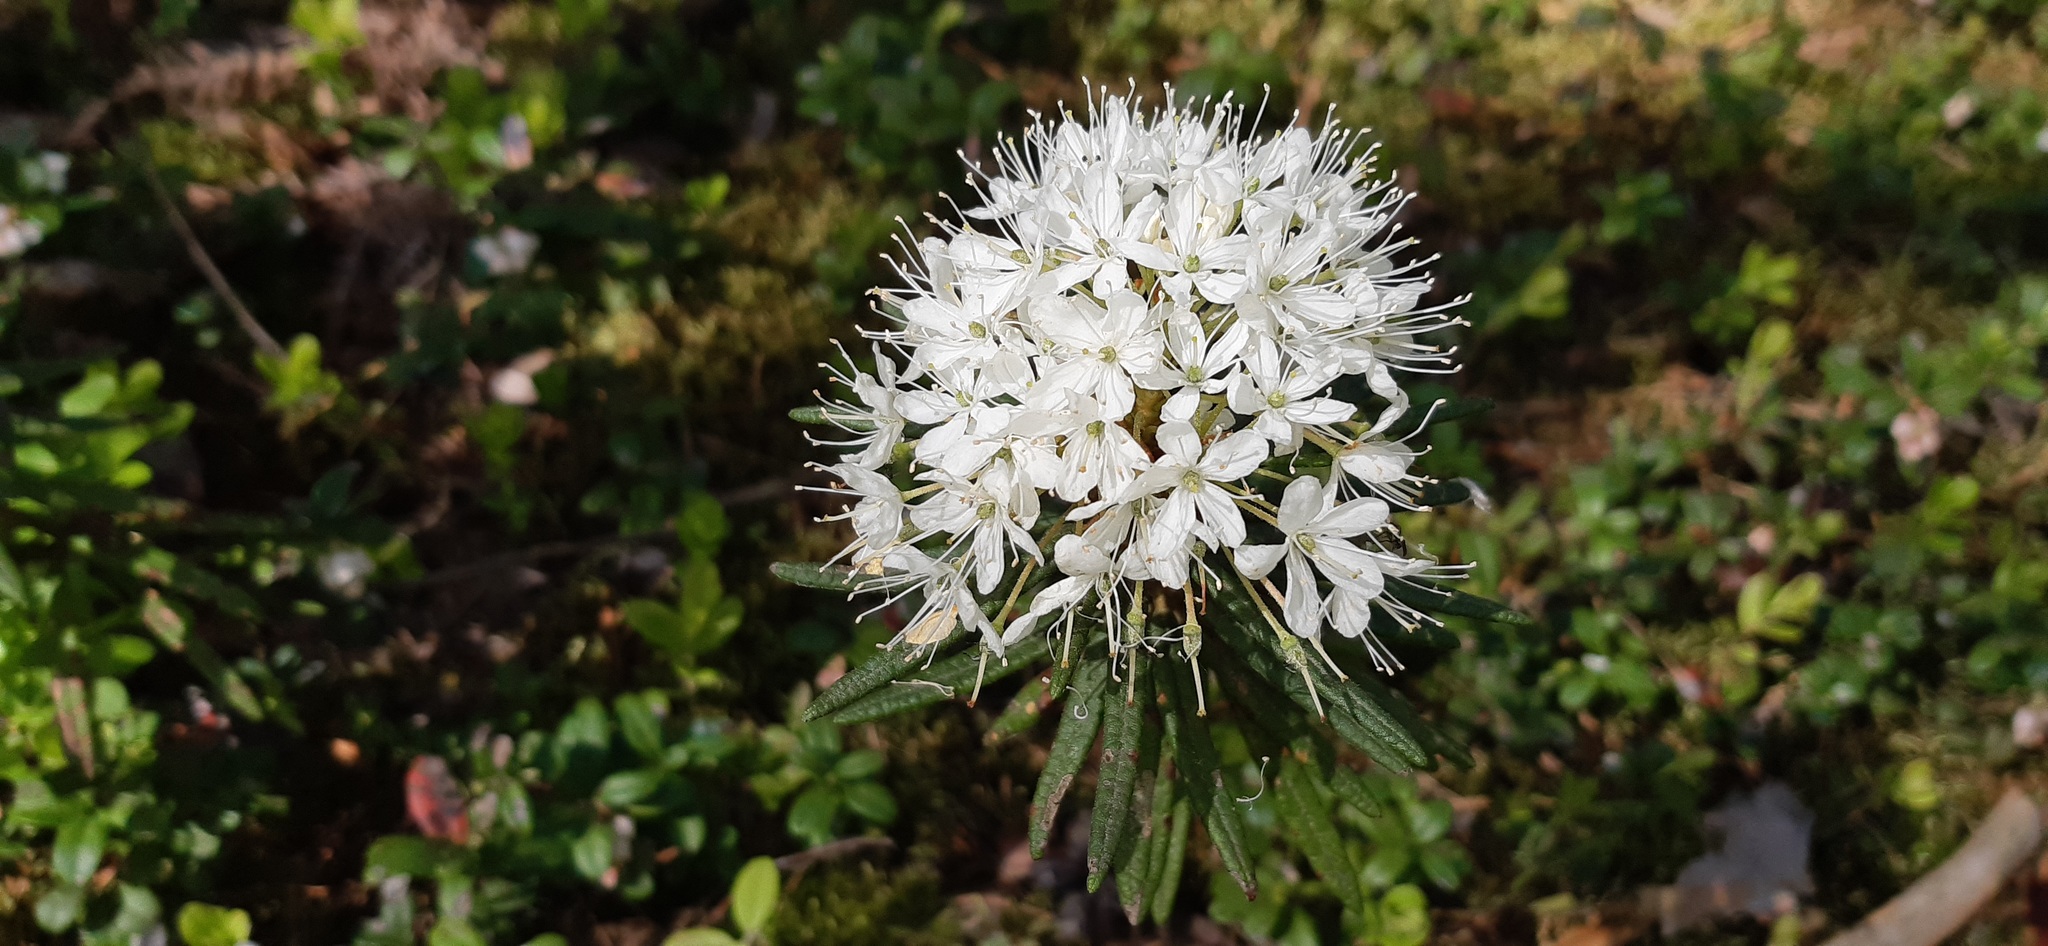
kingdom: Plantae
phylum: Tracheophyta
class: Magnoliopsida
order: Ericales
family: Ericaceae
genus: Rhododendron
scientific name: Rhododendron tomentosum
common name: Marsh labrador tea
